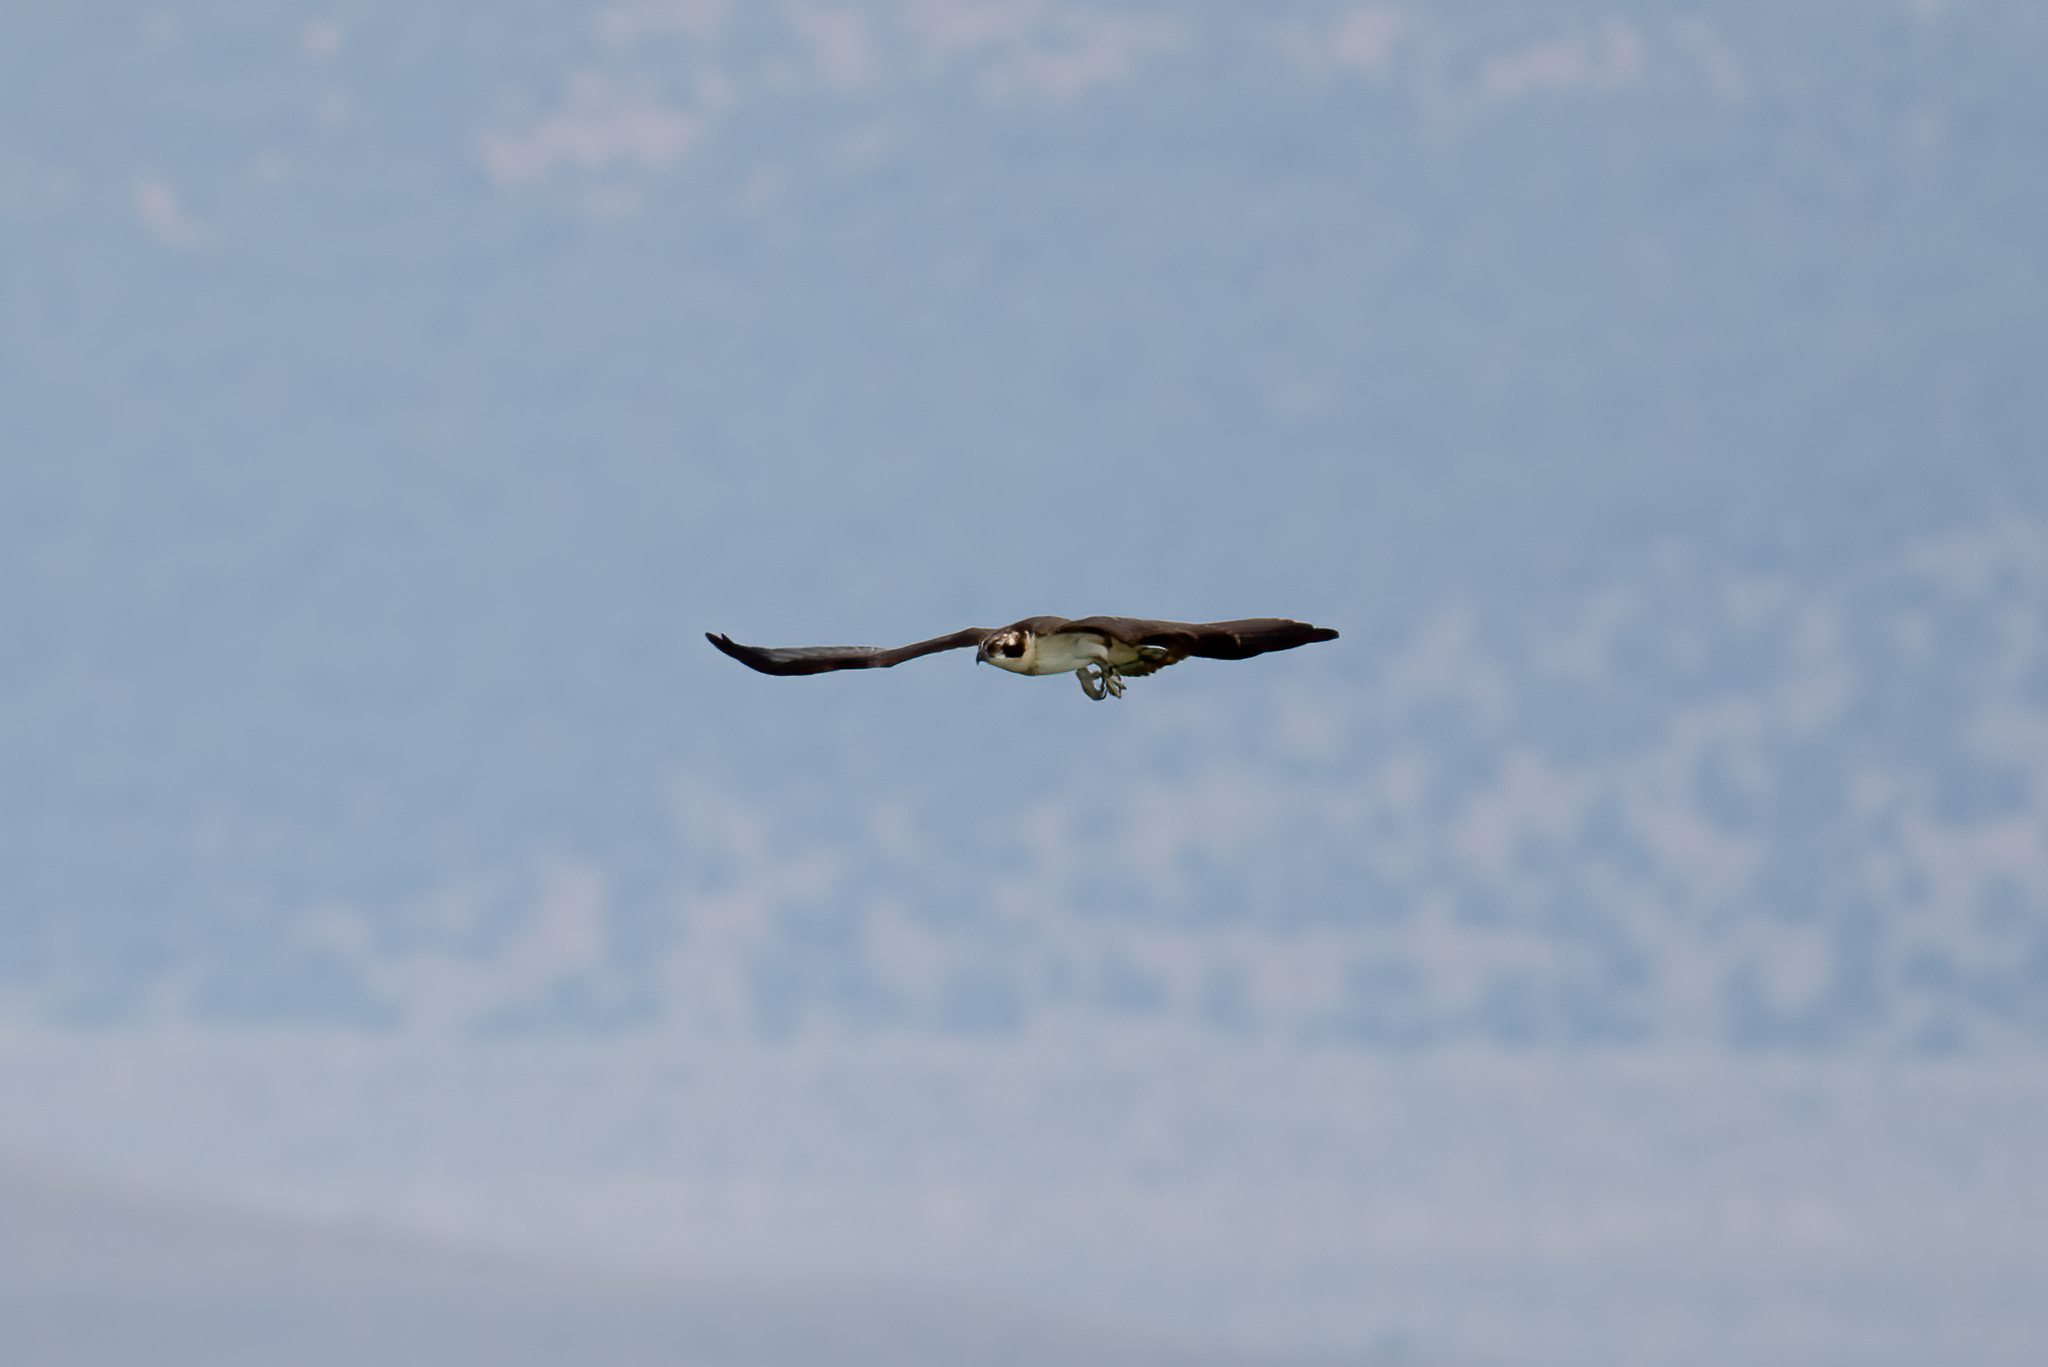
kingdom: Animalia
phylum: Chordata
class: Aves
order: Accipitriformes
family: Pandionidae
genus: Pandion
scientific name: Pandion haliaetus
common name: Osprey
